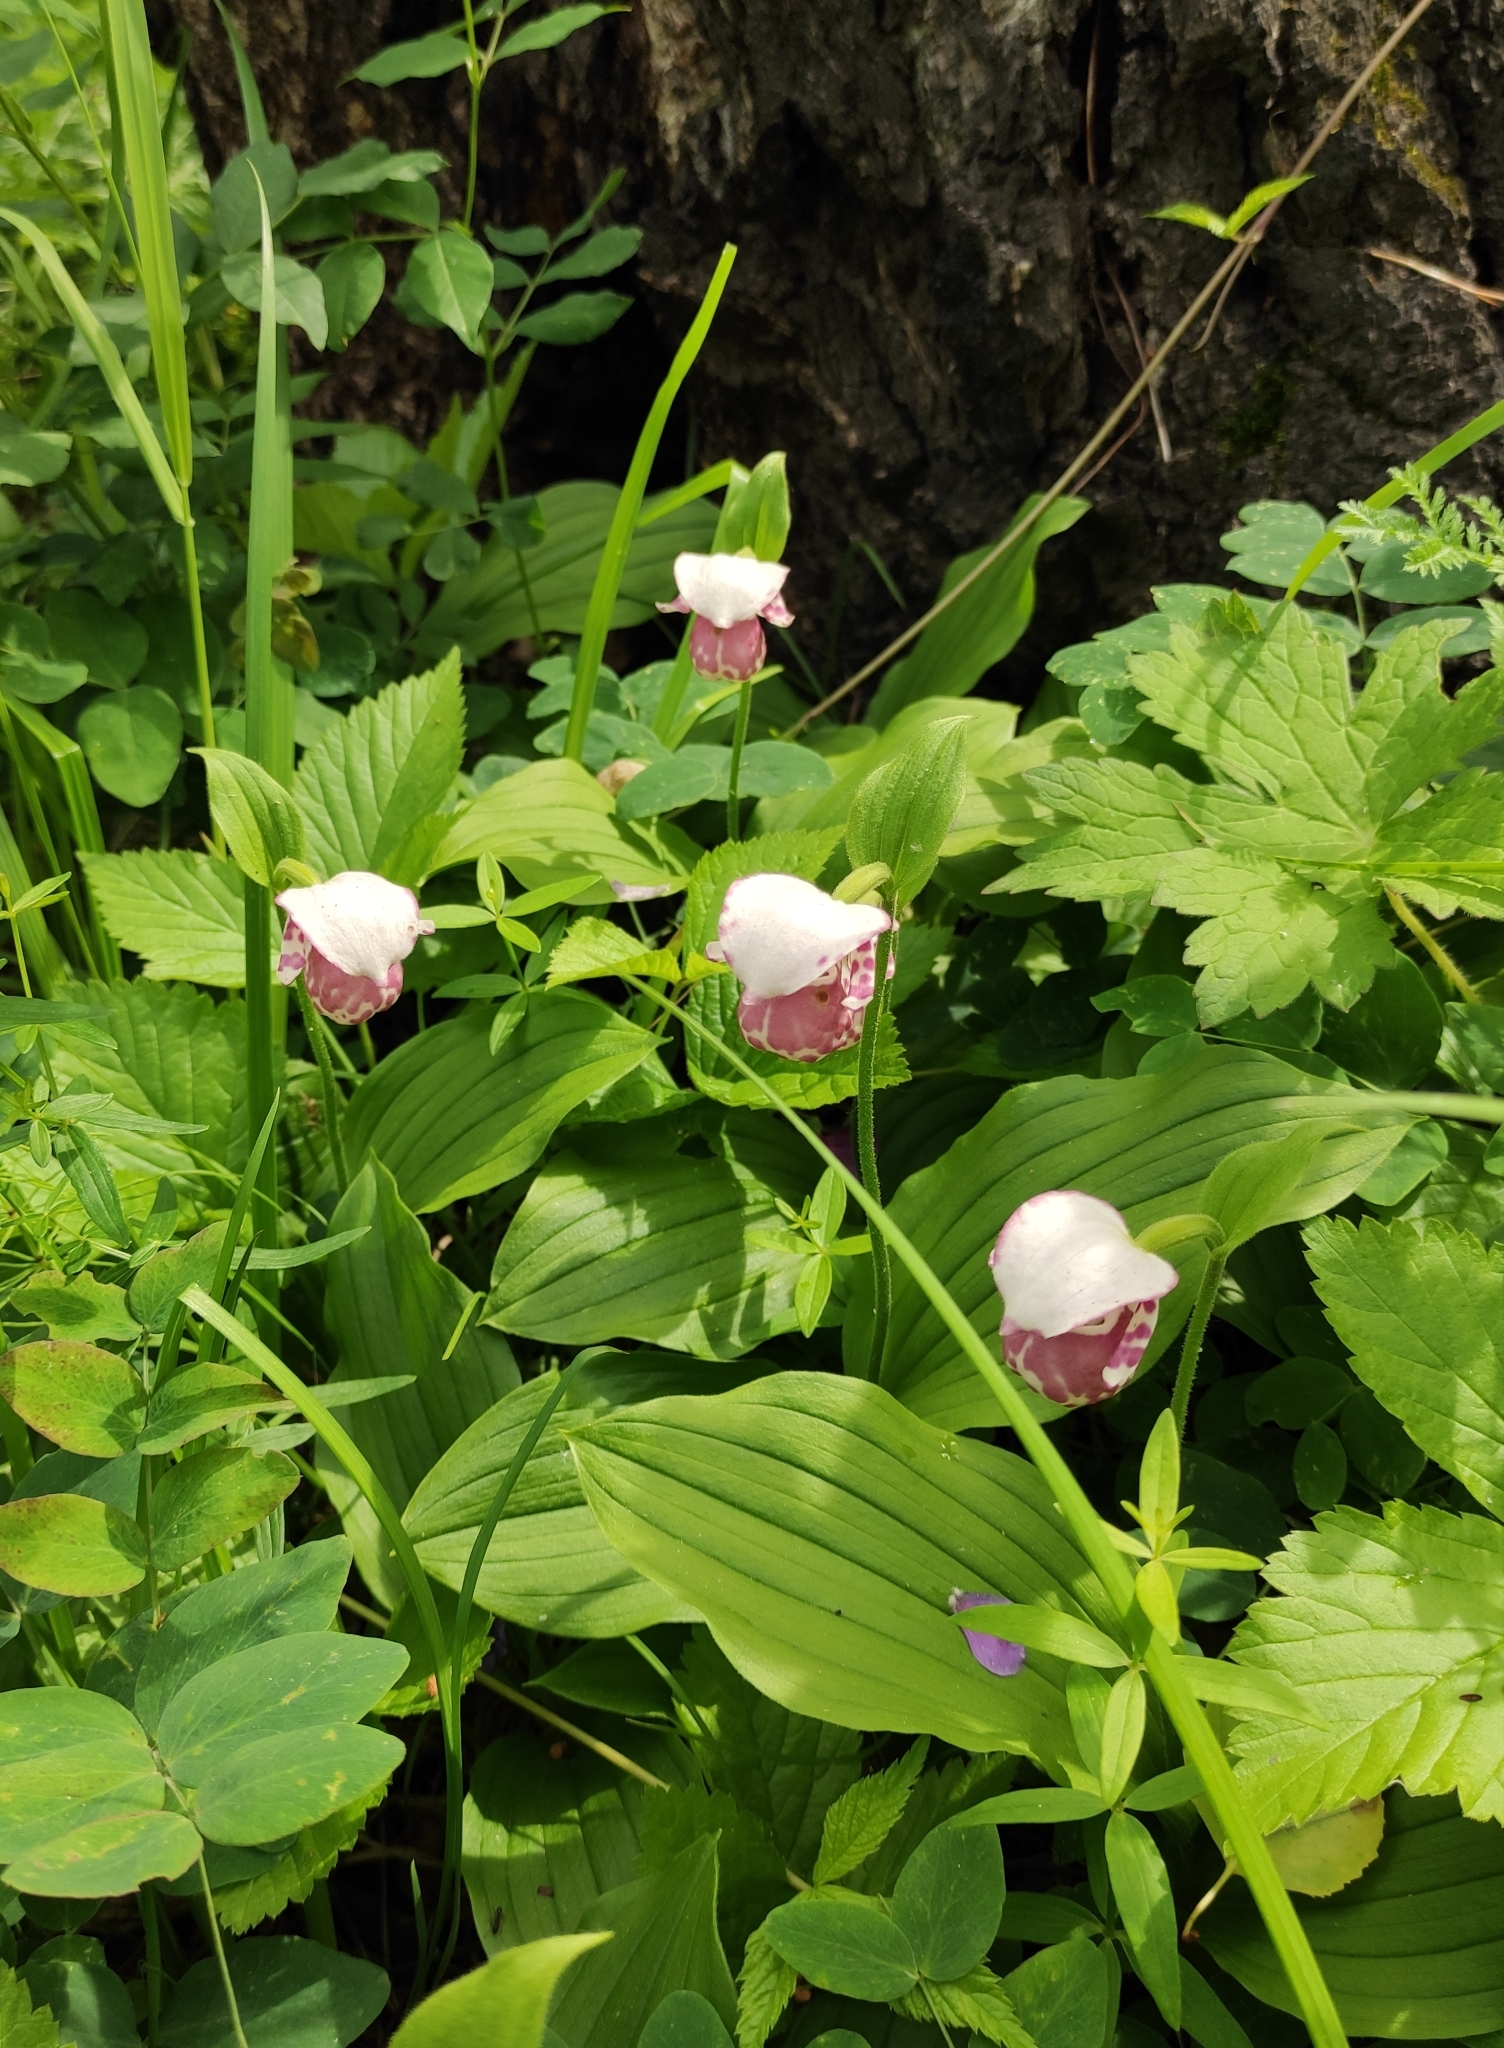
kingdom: Plantae
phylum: Tracheophyta
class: Liliopsida
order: Asparagales
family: Orchidaceae
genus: Cypripedium
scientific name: Cypripedium guttatum
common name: Pink lady slipper
